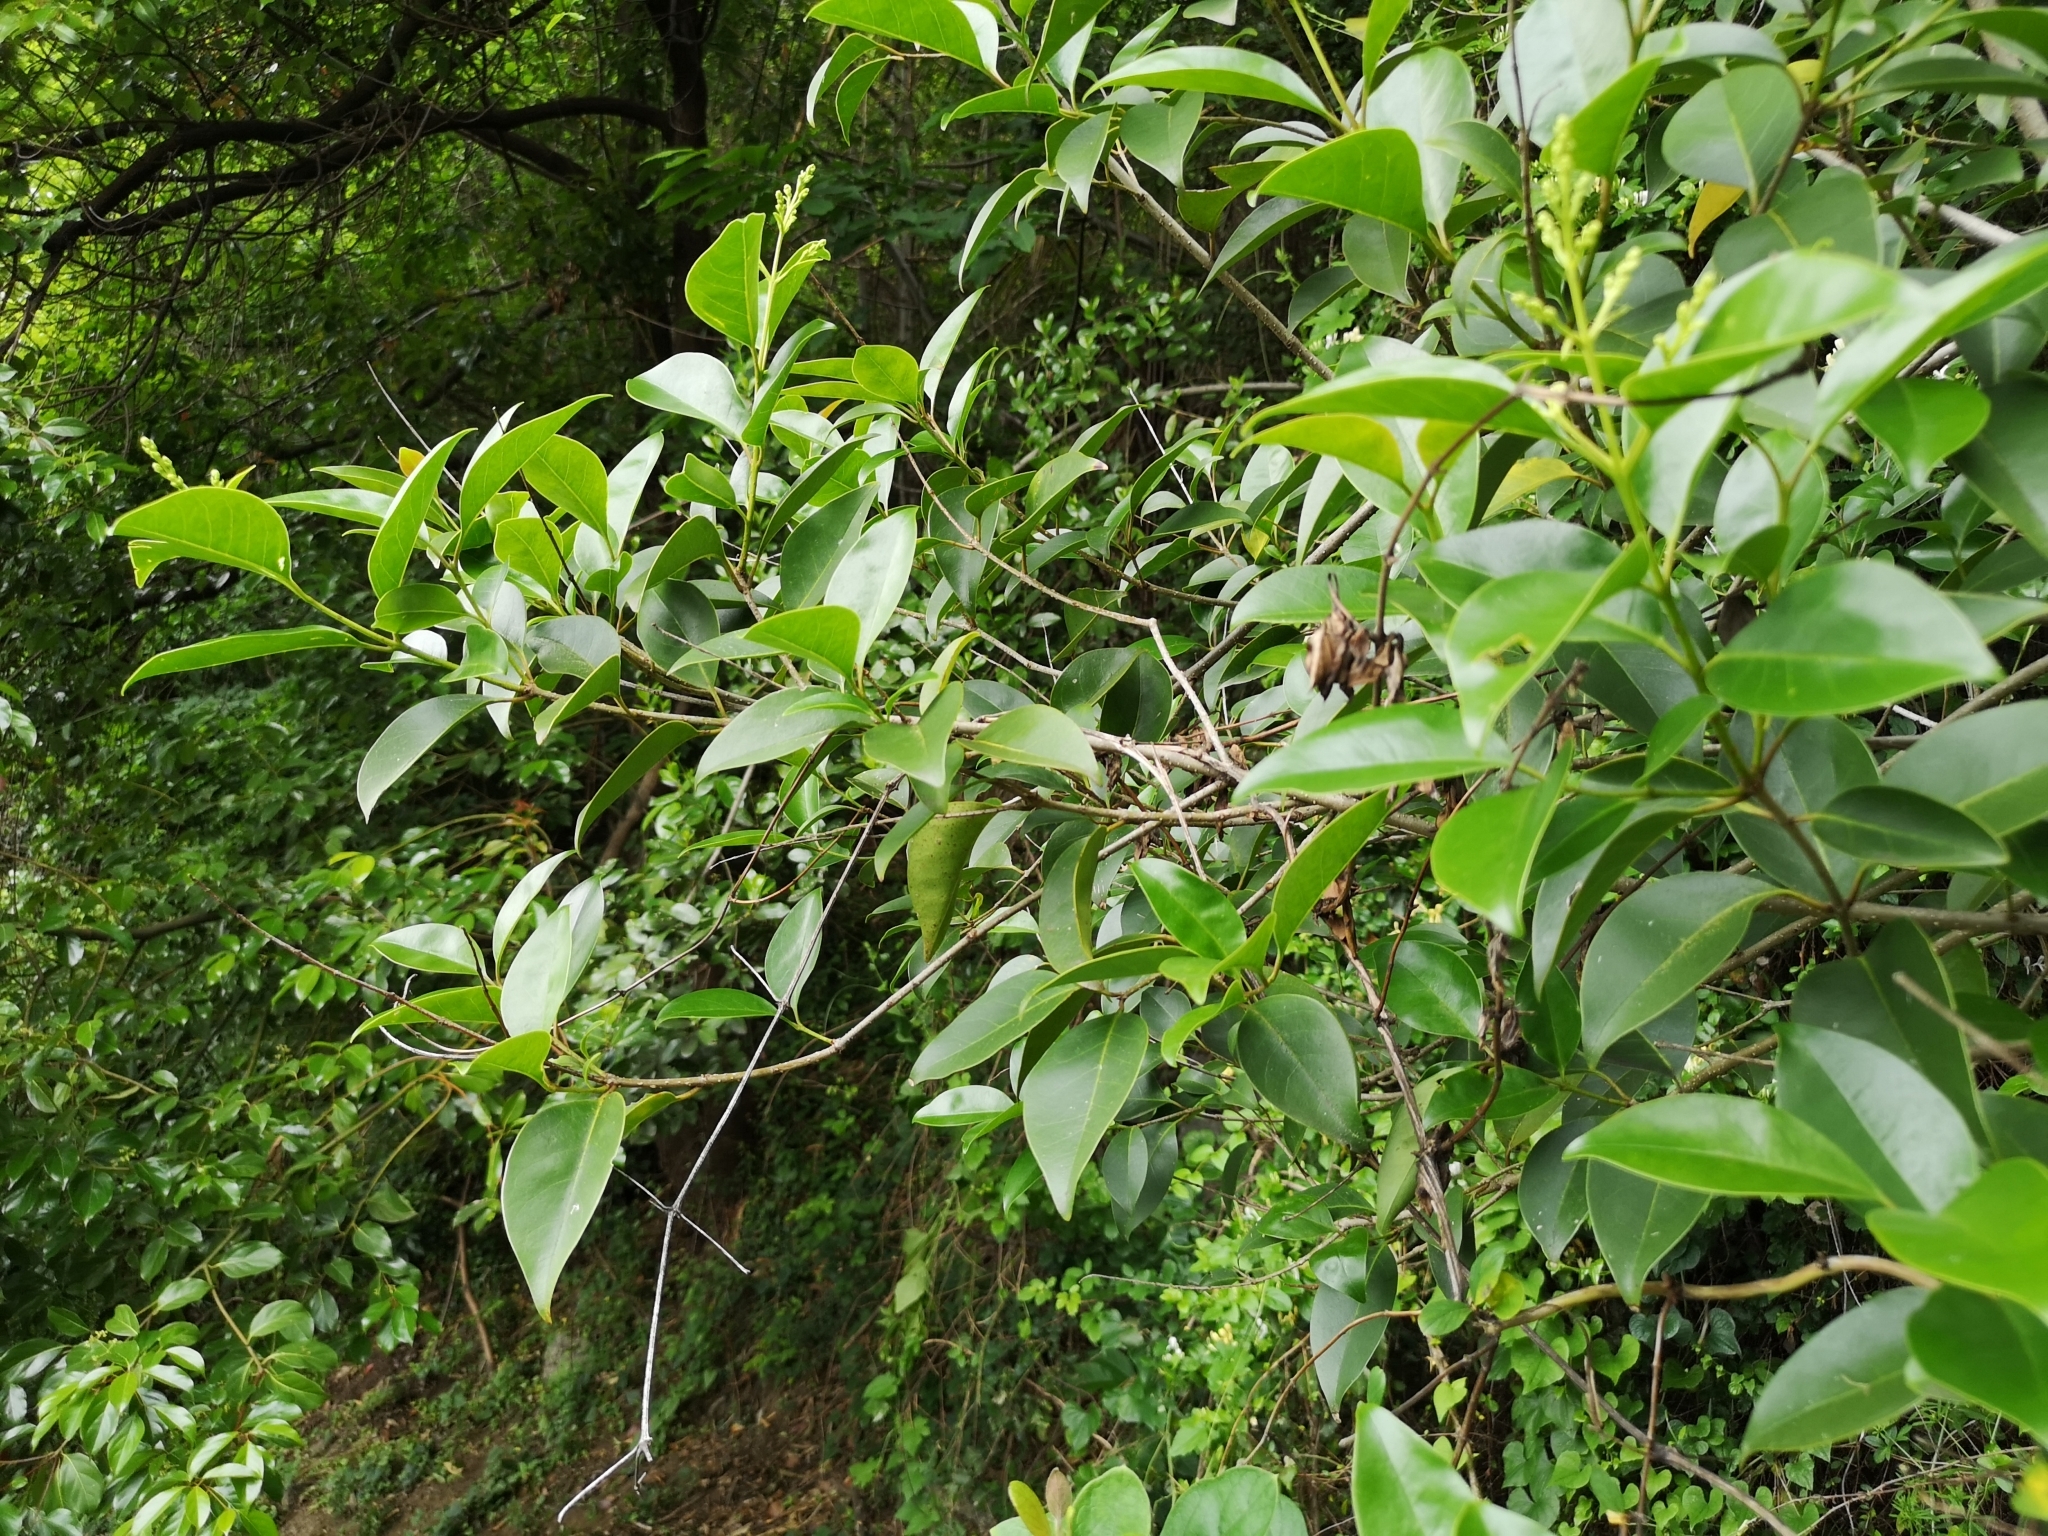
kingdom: Plantae
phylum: Tracheophyta
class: Magnoliopsida
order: Lamiales
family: Oleaceae
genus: Ligustrum
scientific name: Ligustrum lucidum
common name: Glossy privet
